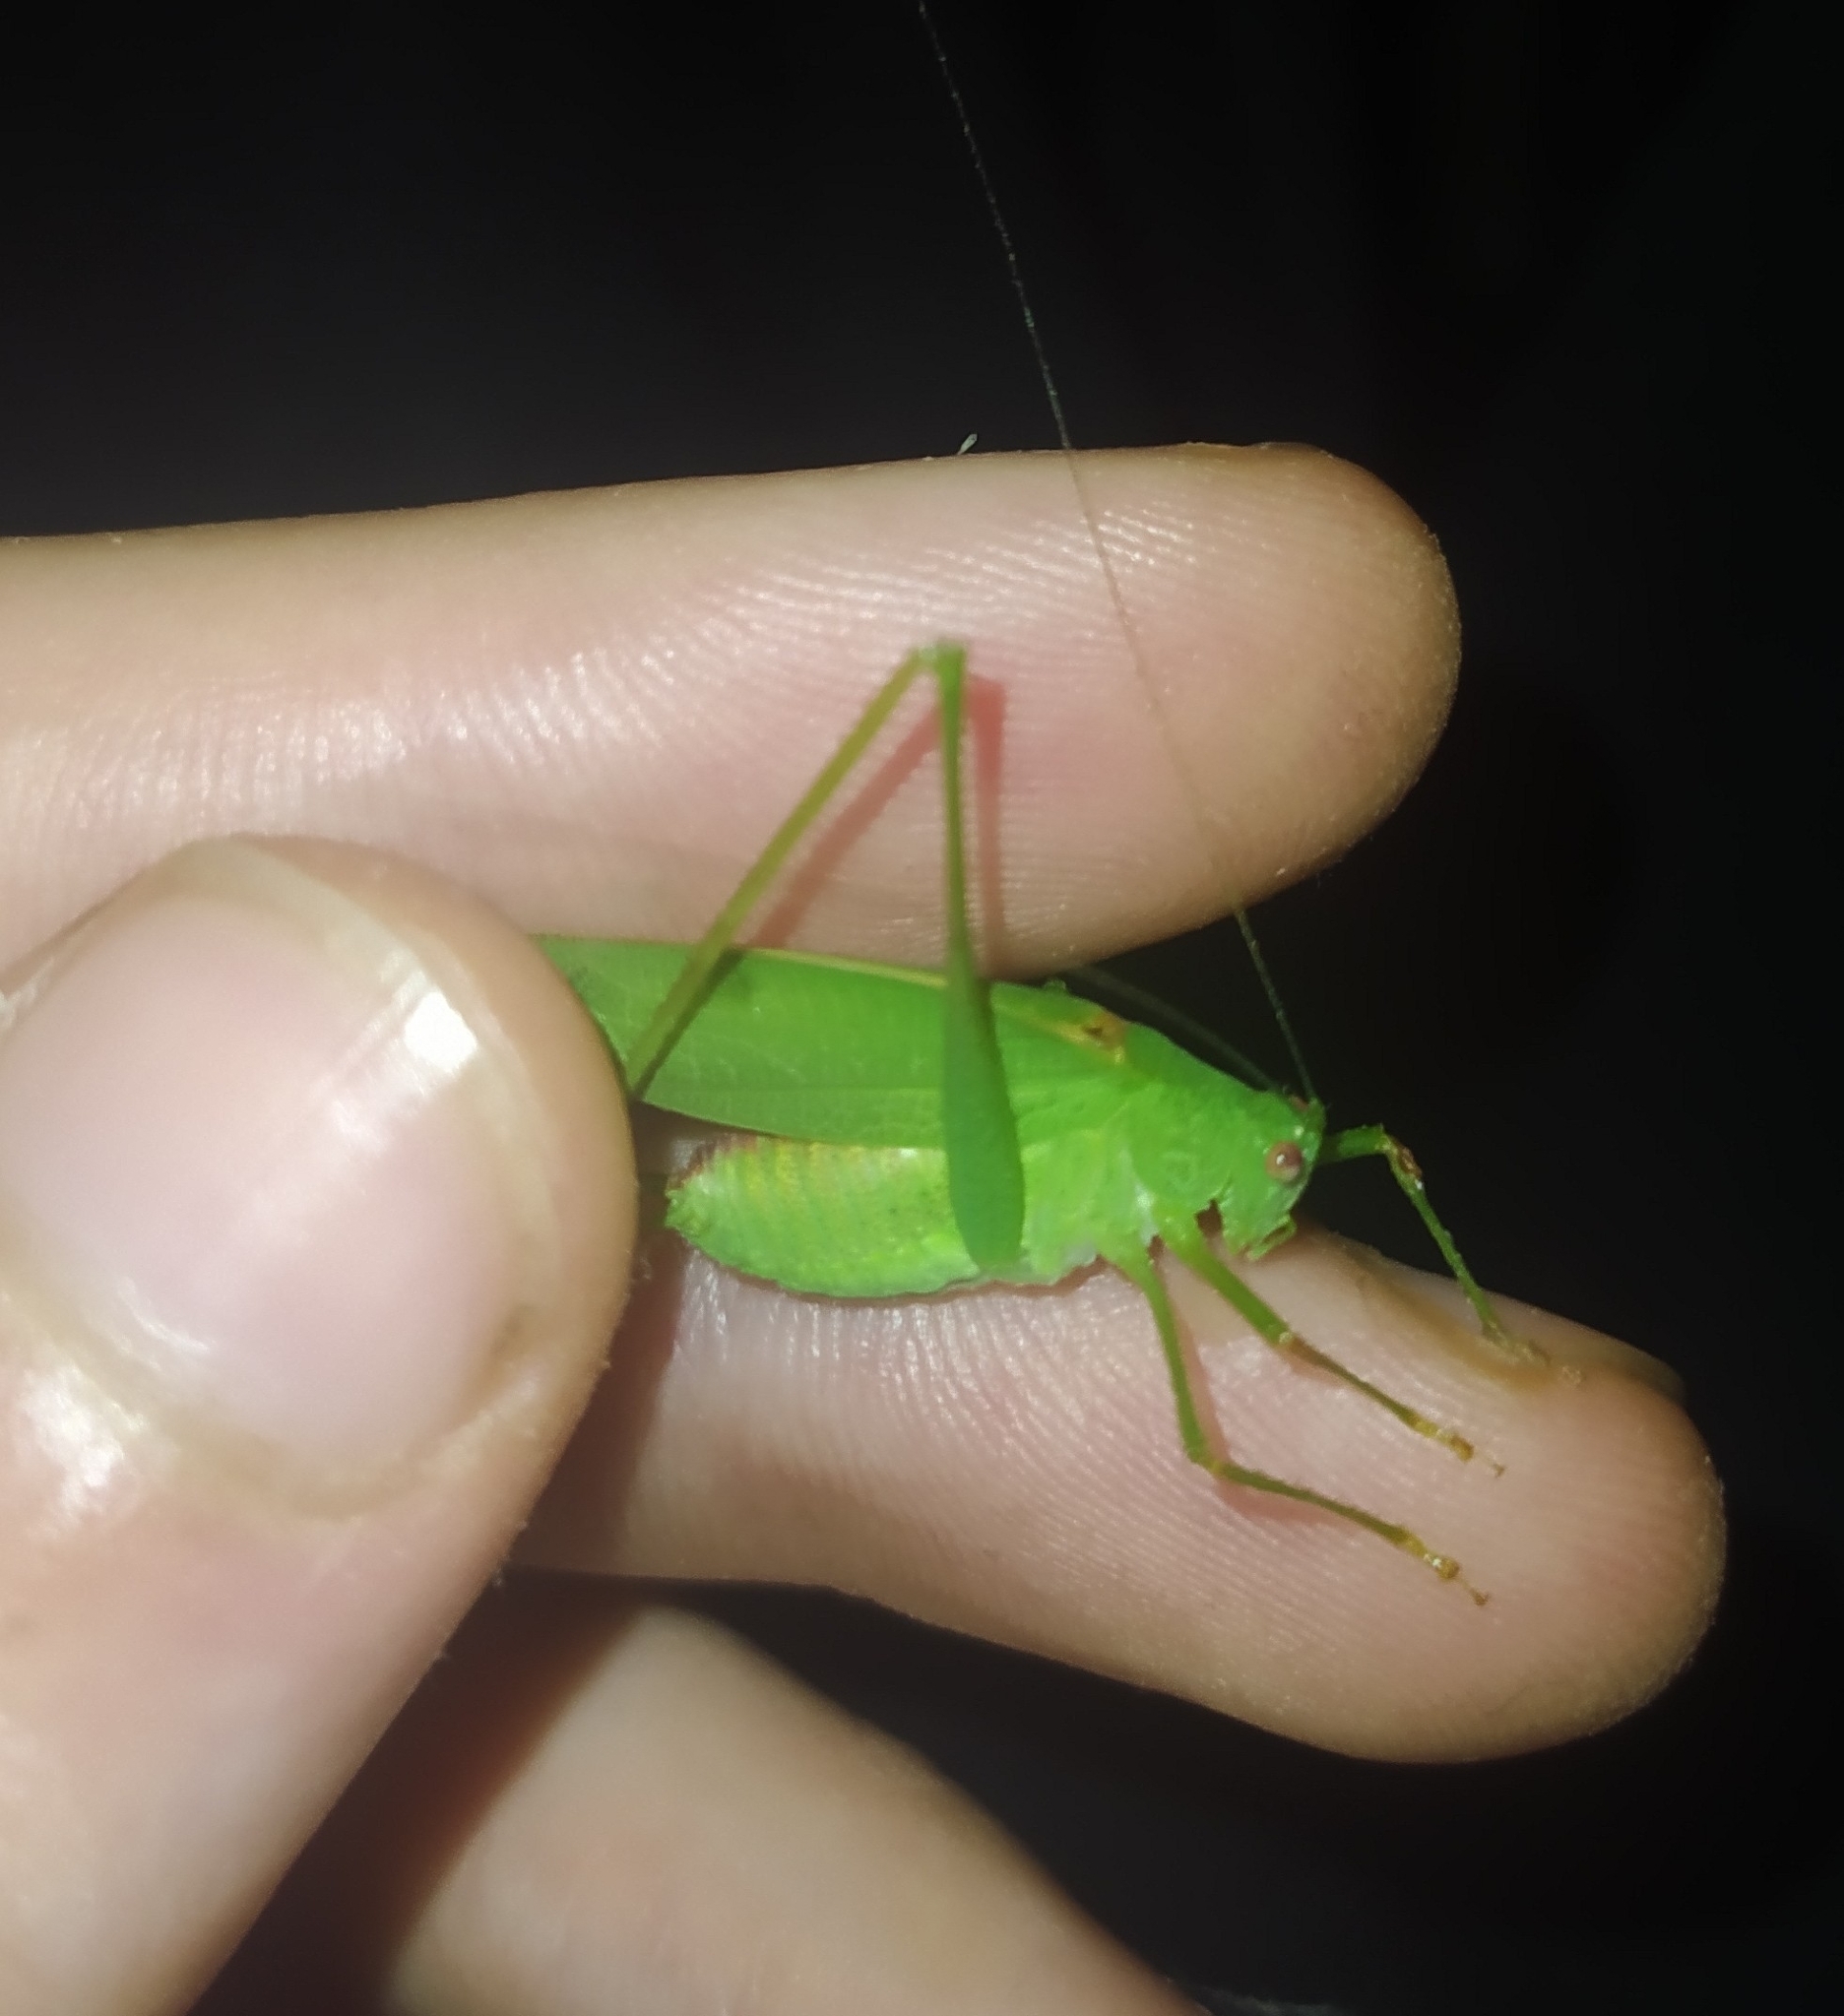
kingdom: Animalia
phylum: Arthropoda
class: Insecta
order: Orthoptera
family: Tettigoniidae
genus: Phaneroptera
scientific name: Phaneroptera nana
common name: Southern sickle bush-cricket
